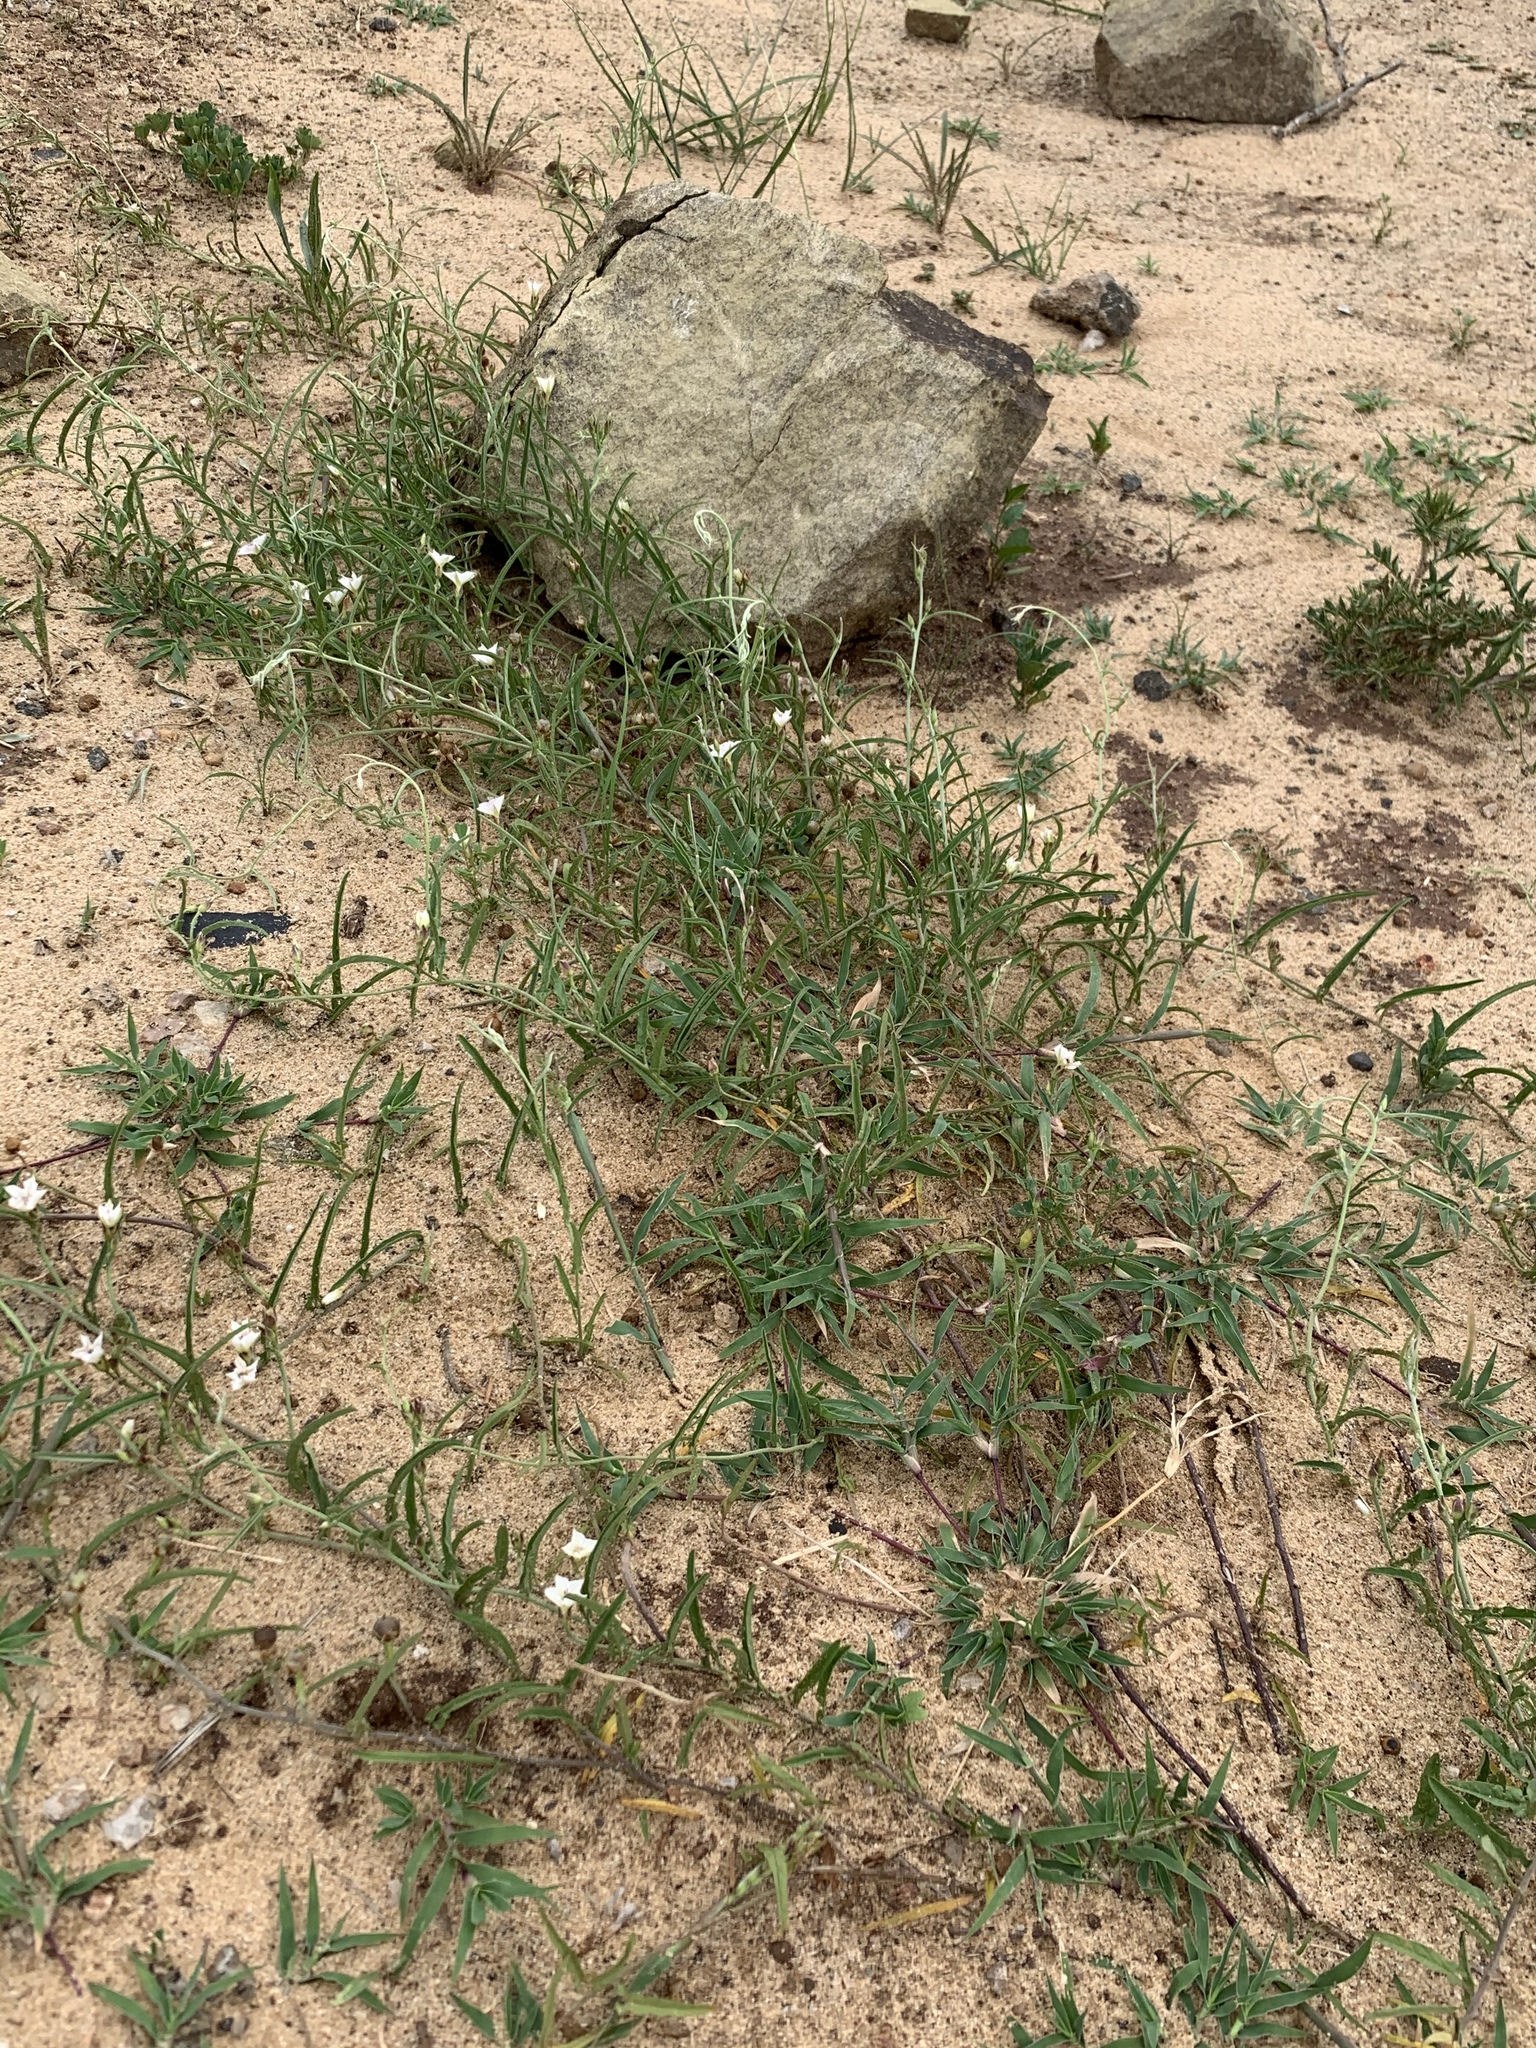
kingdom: Plantae
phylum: Tracheophyta
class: Magnoliopsida
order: Solanales
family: Convolvulaceae
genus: Convolvulus
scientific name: Convolvulus sagittatus
